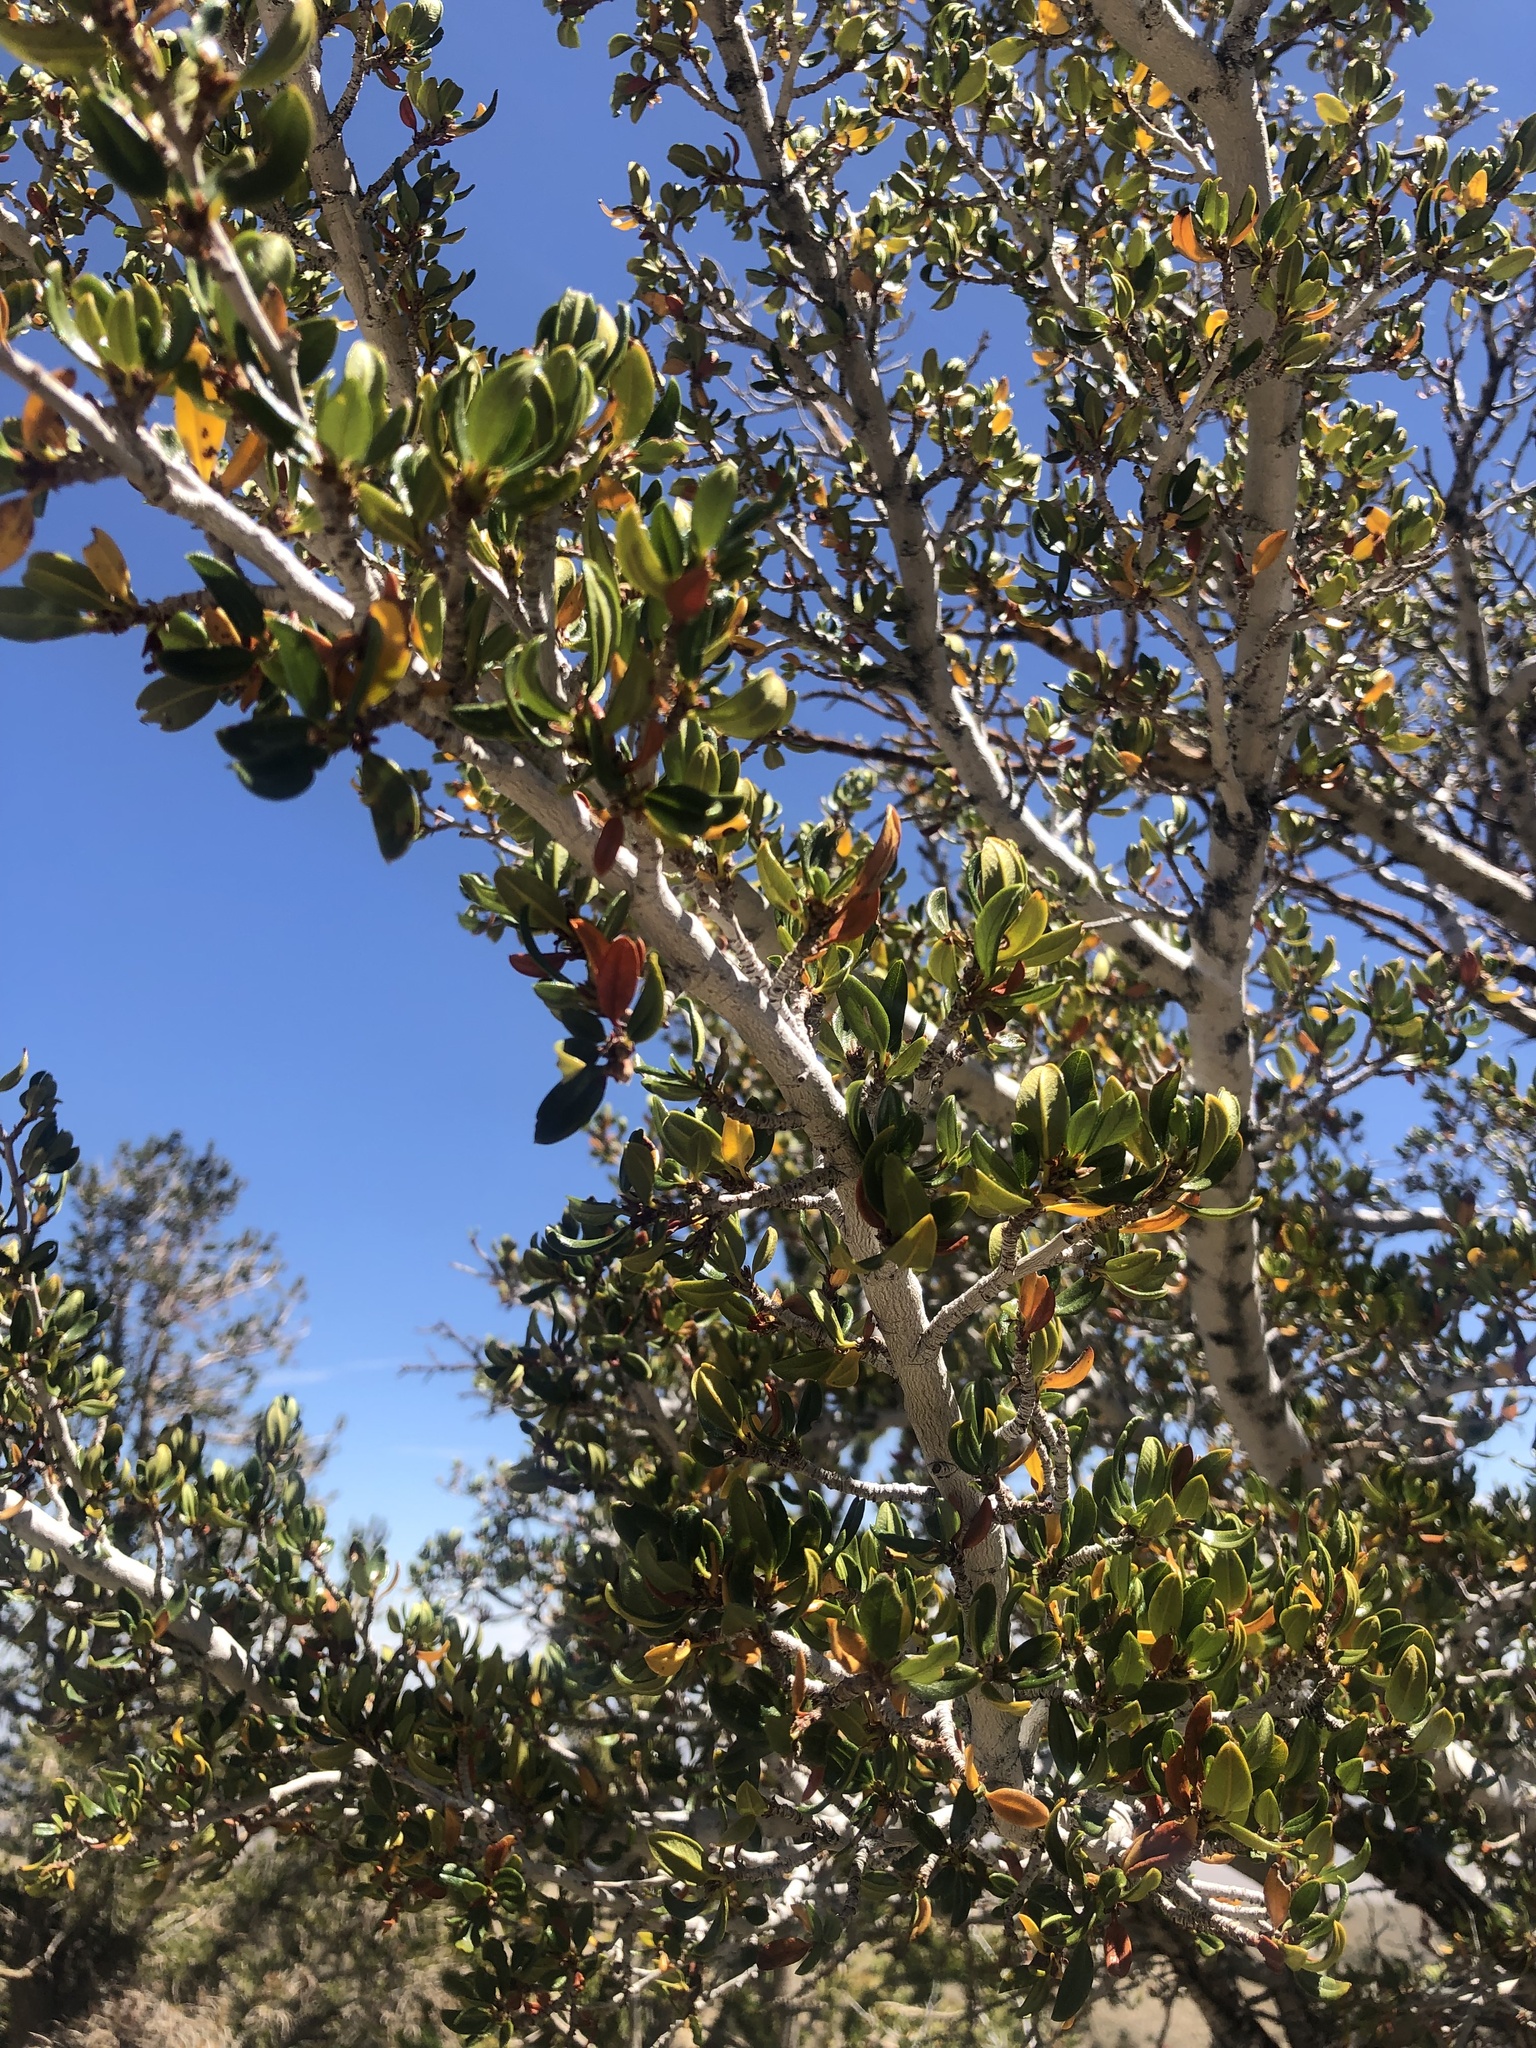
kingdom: Plantae
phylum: Tracheophyta
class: Magnoliopsida
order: Rosales
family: Rosaceae
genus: Cercocarpus
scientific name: Cercocarpus ledifolius
